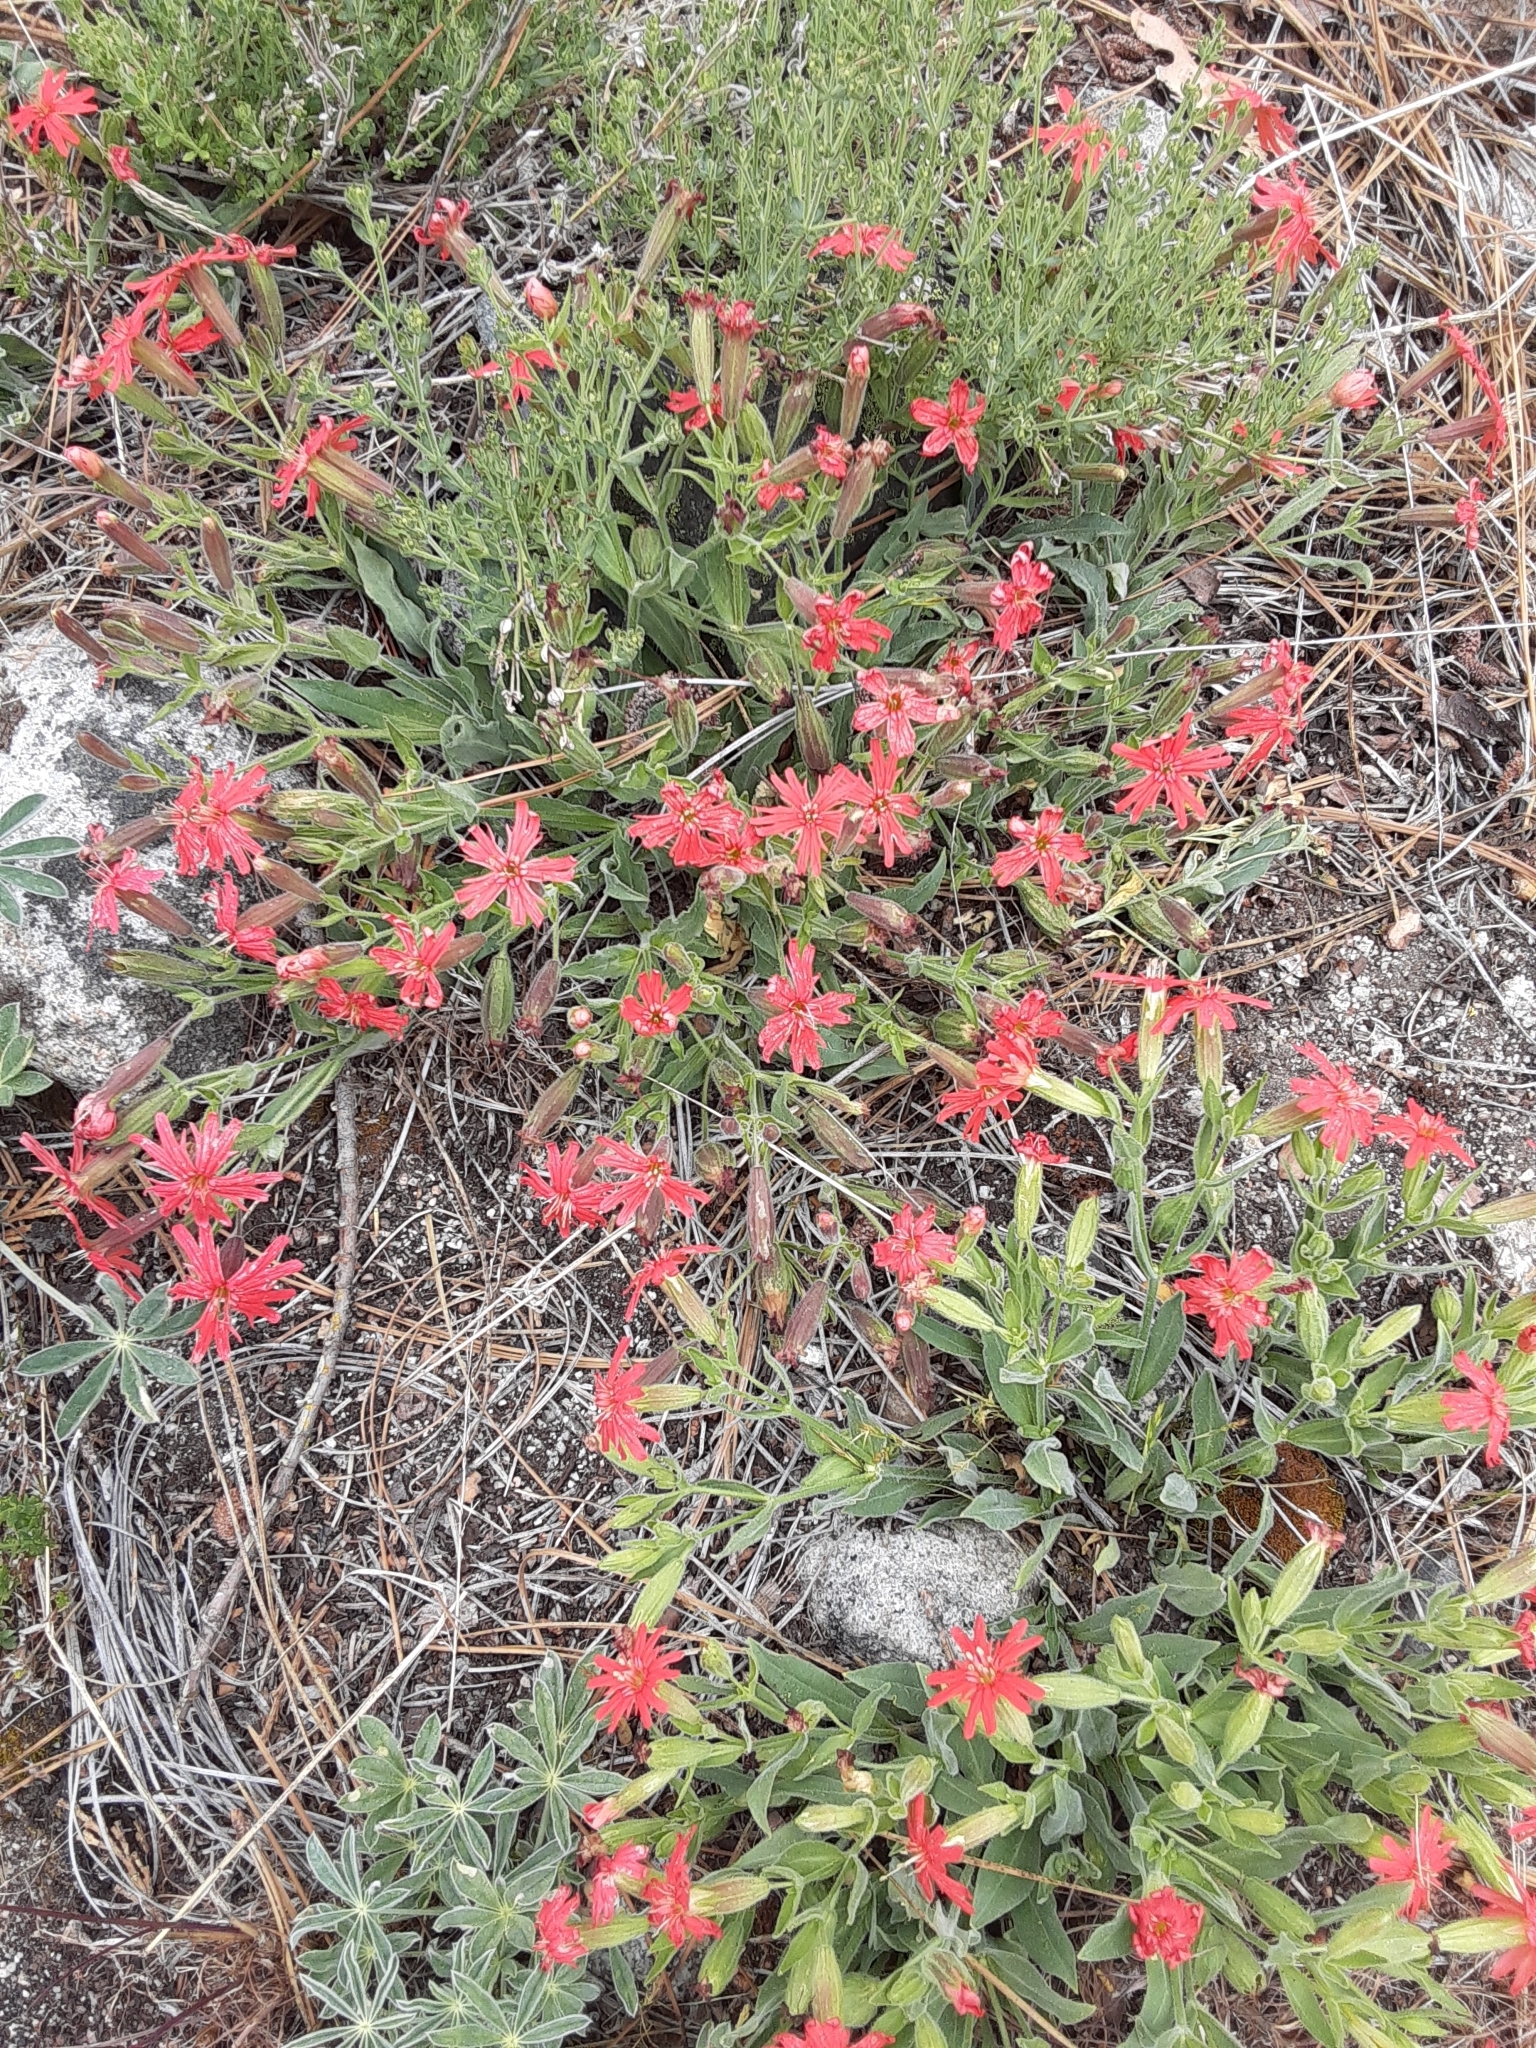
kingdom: Plantae
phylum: Tracheophyta
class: Magnoliopsida
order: Caryophyllales
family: Caryophyllaceae
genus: Silene
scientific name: Silene laciniata
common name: Indian-pink
